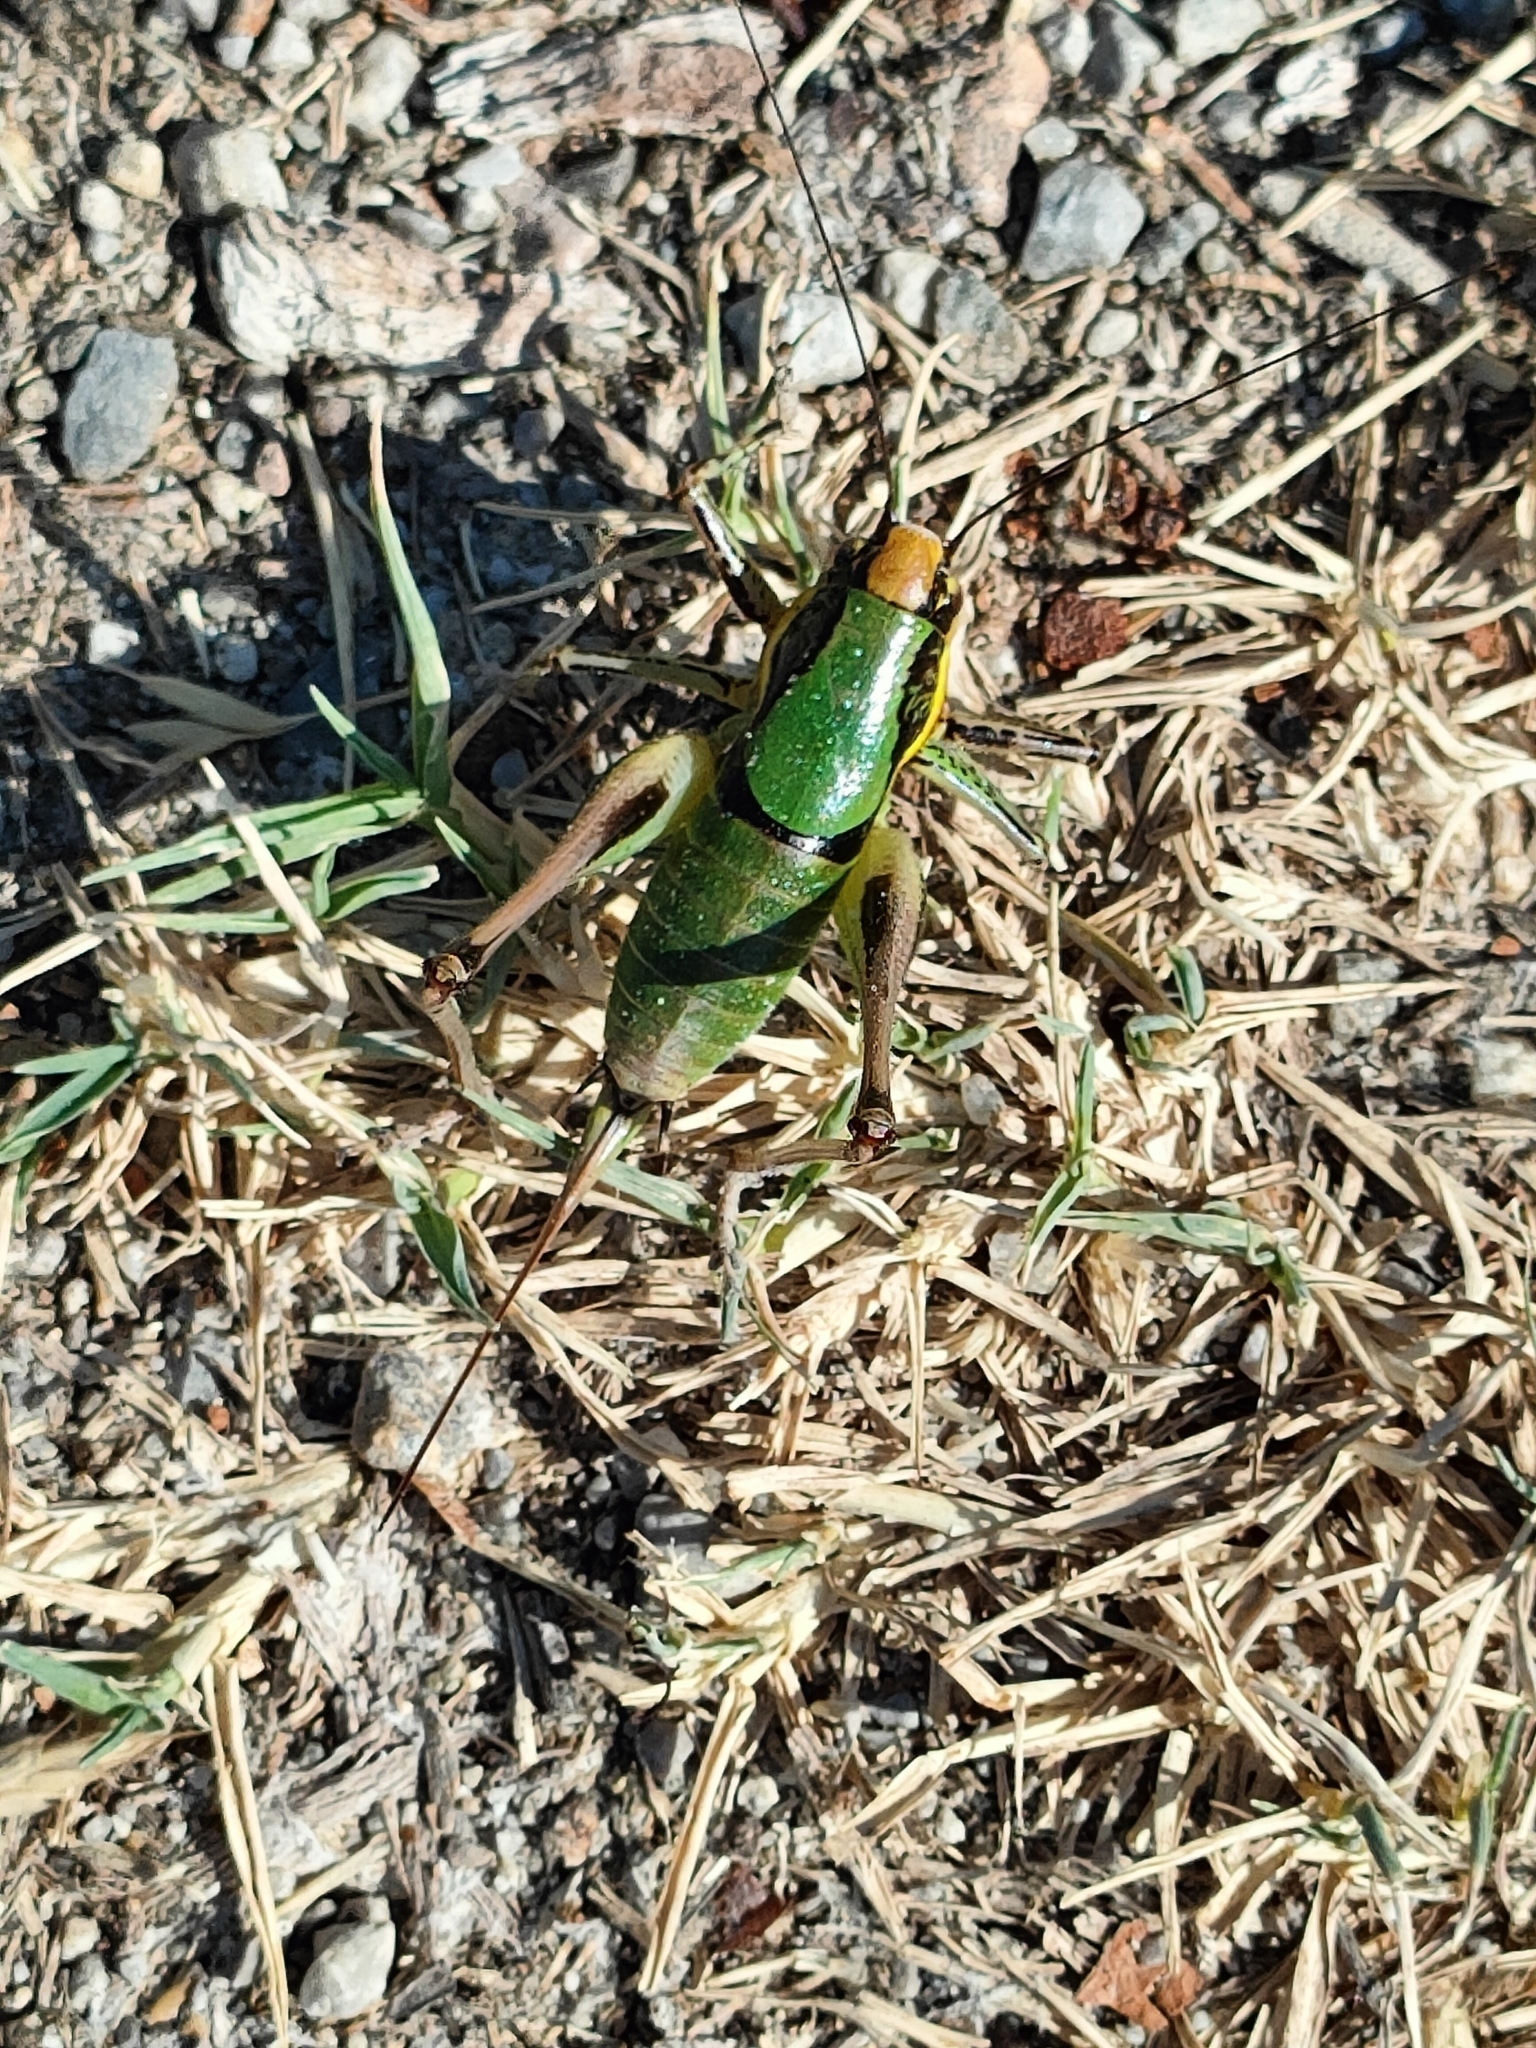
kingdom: Animalia
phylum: Arthropoda
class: Insecta
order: Orthoptera
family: Tettigoniidae
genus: Eupholidoptera
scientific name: Eupholidoptera chabrieri
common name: Chabrier's marbled bush-cricket
